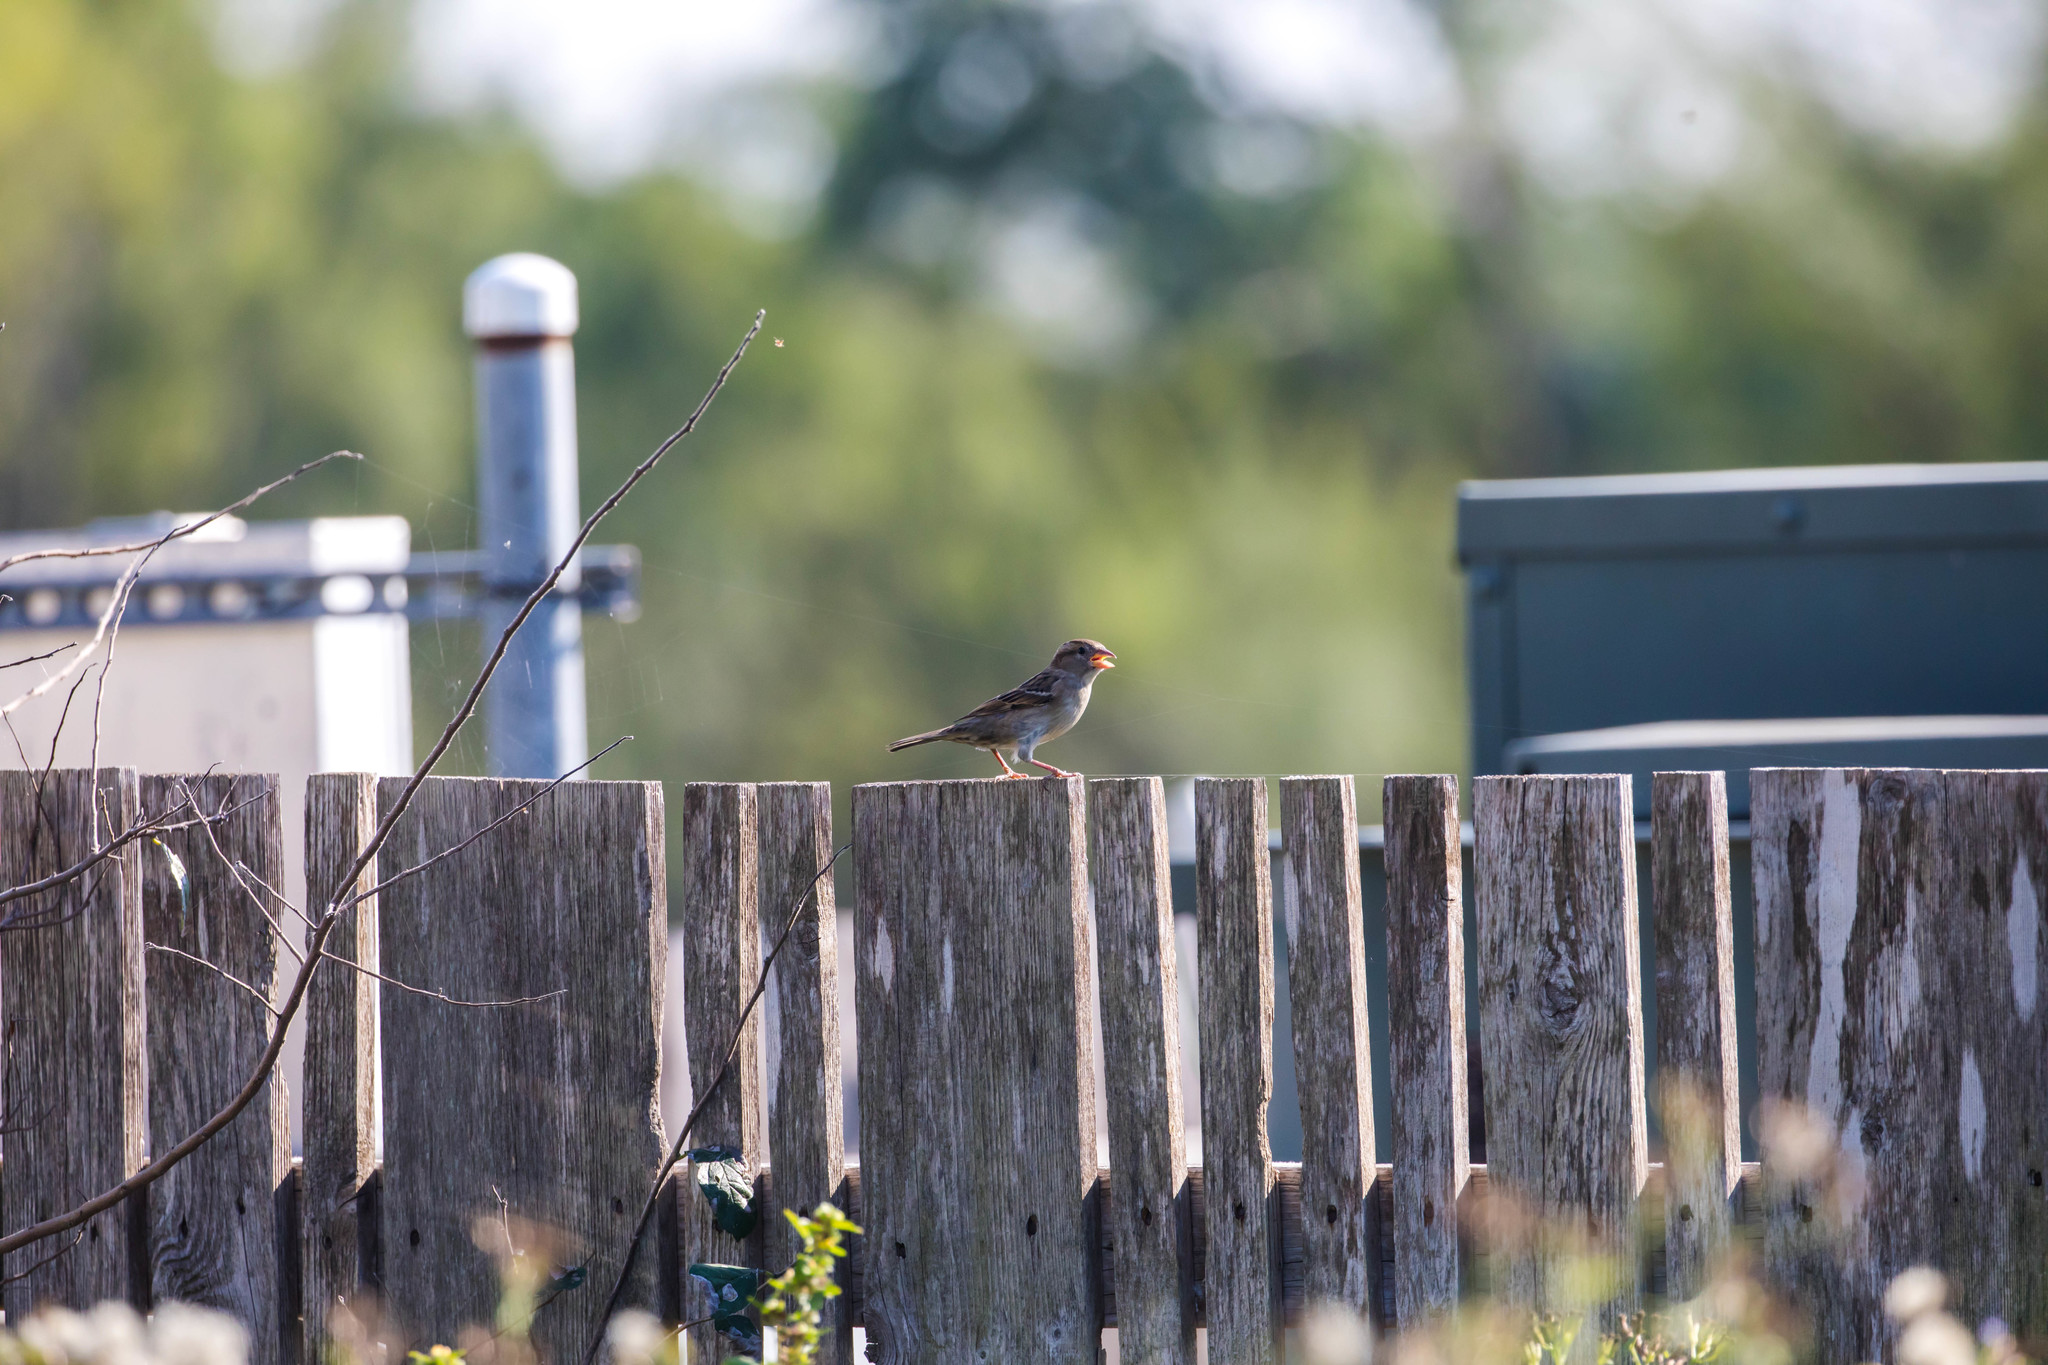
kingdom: Animalia
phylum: Chordata
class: Aves
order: Passeriformes
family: Passeridae
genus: Passer
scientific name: Passer domesticus
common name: House sparrow
